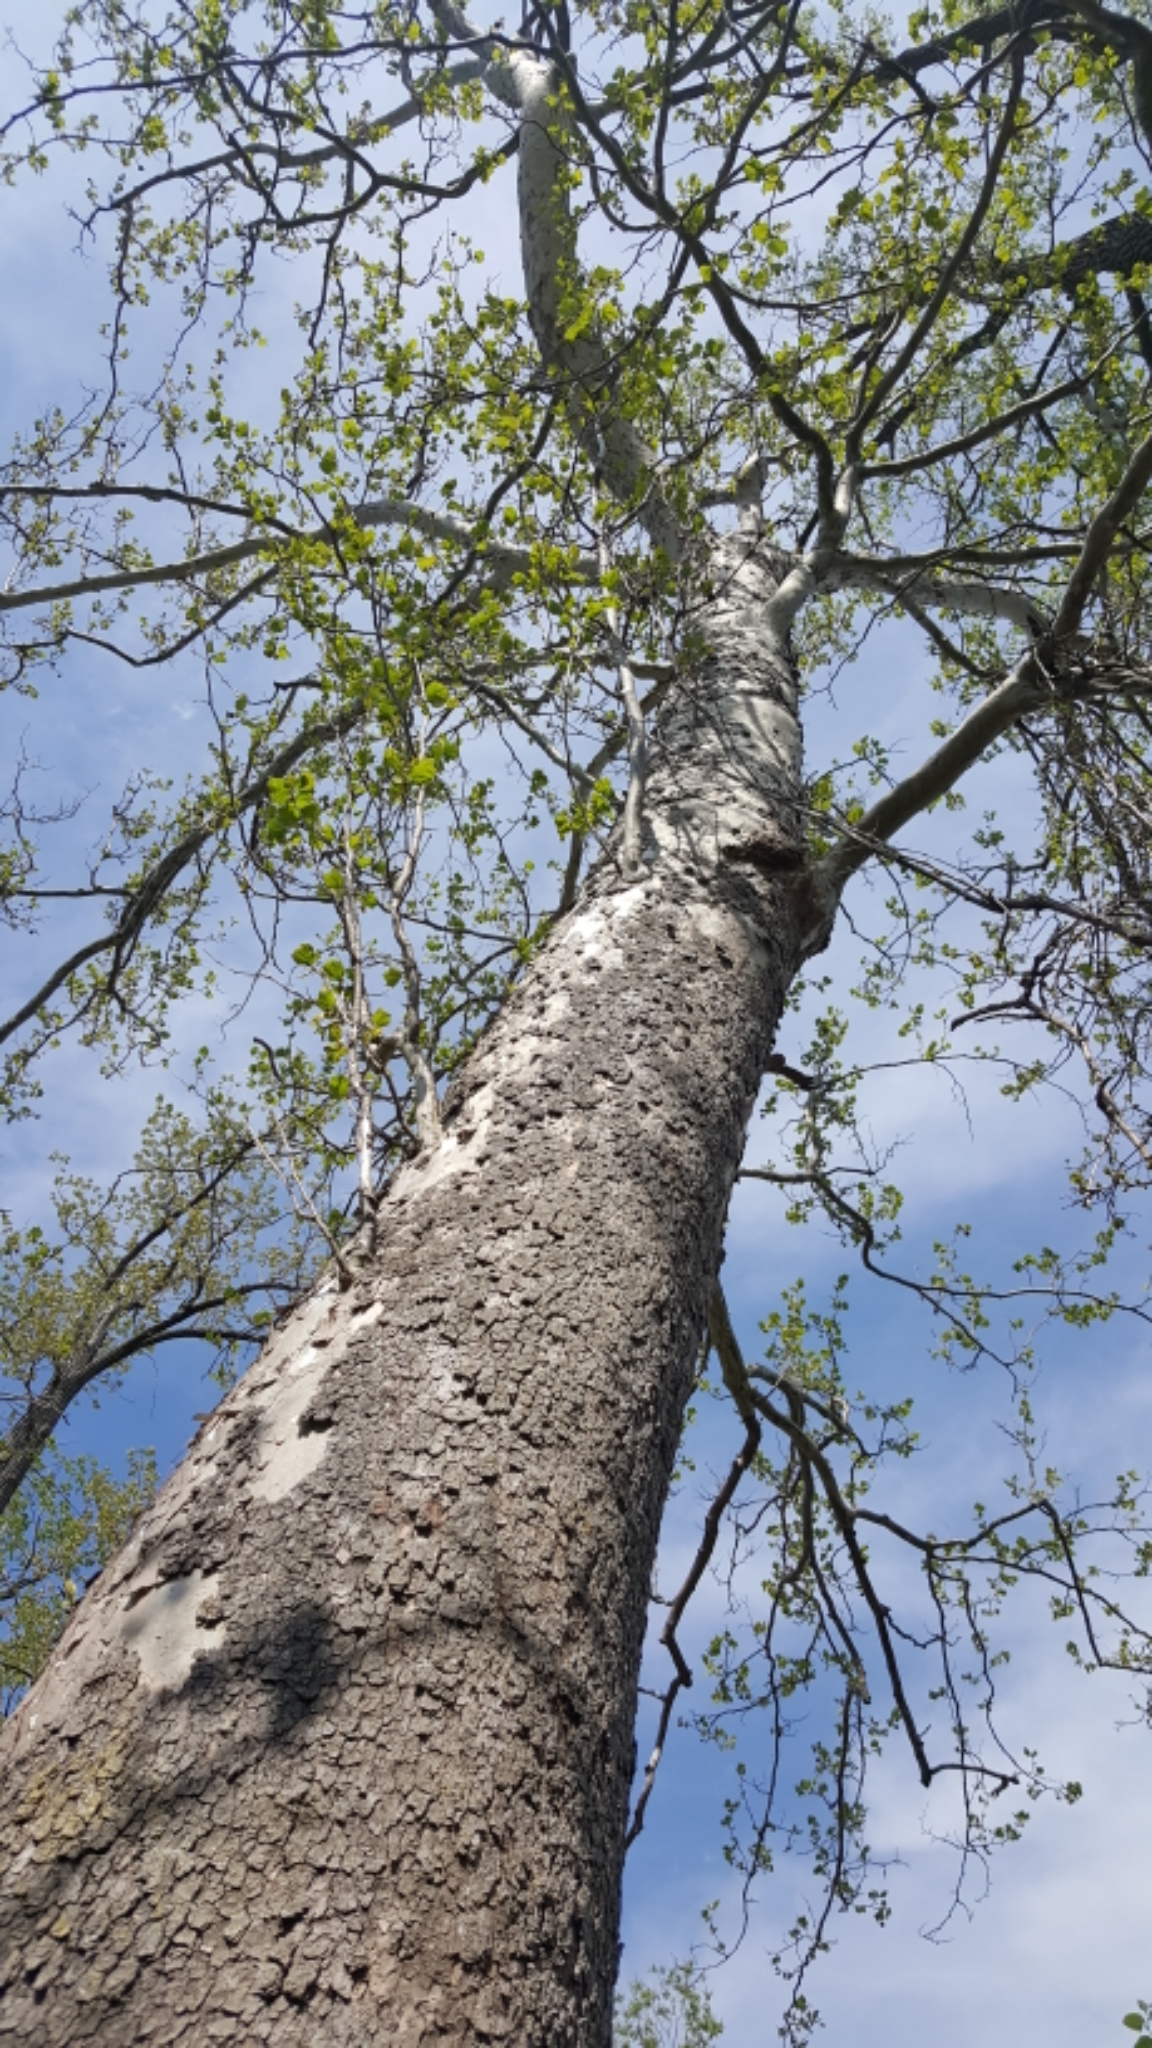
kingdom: Plantae
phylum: Tracheophyta
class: Magnoliopsida
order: Proteales
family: Platanaceae
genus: Platanus
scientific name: Platanus occidentalis
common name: American sycamore
